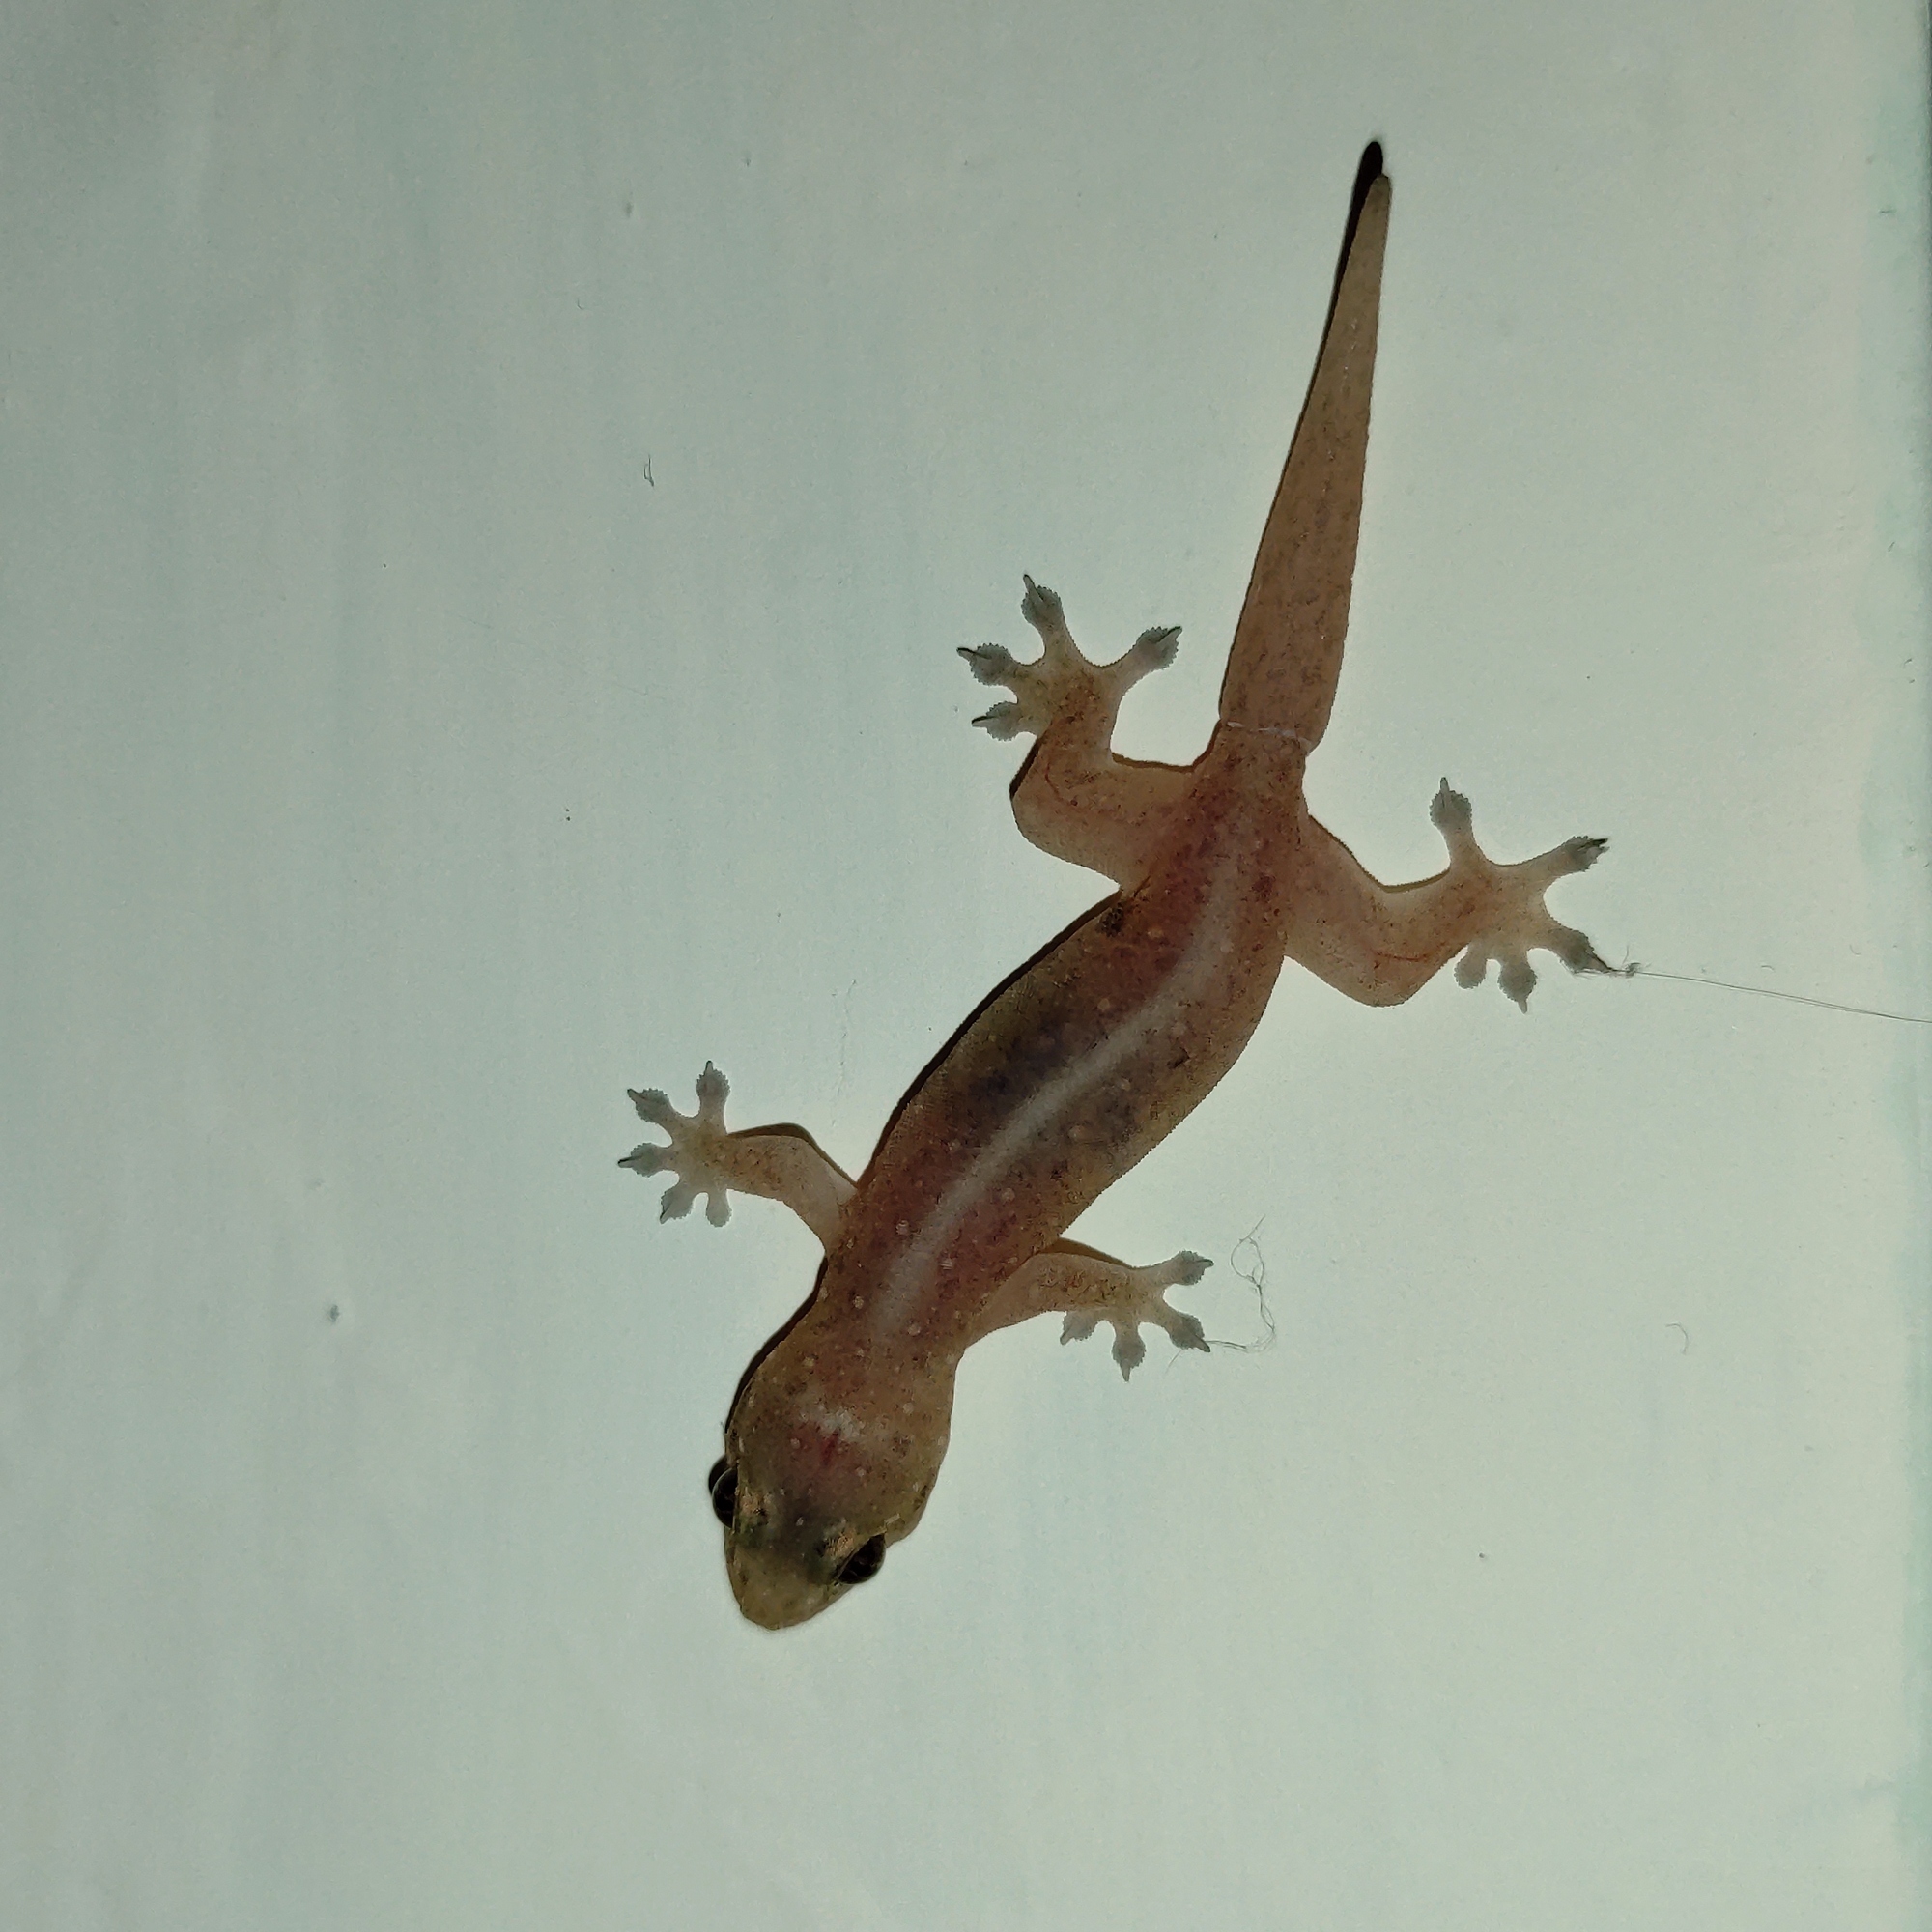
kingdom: Animalia
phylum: Chordata
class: Squamata
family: Gekkonidae
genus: Gehyra
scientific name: Gehyra mutilata
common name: Stump-toed gecko
